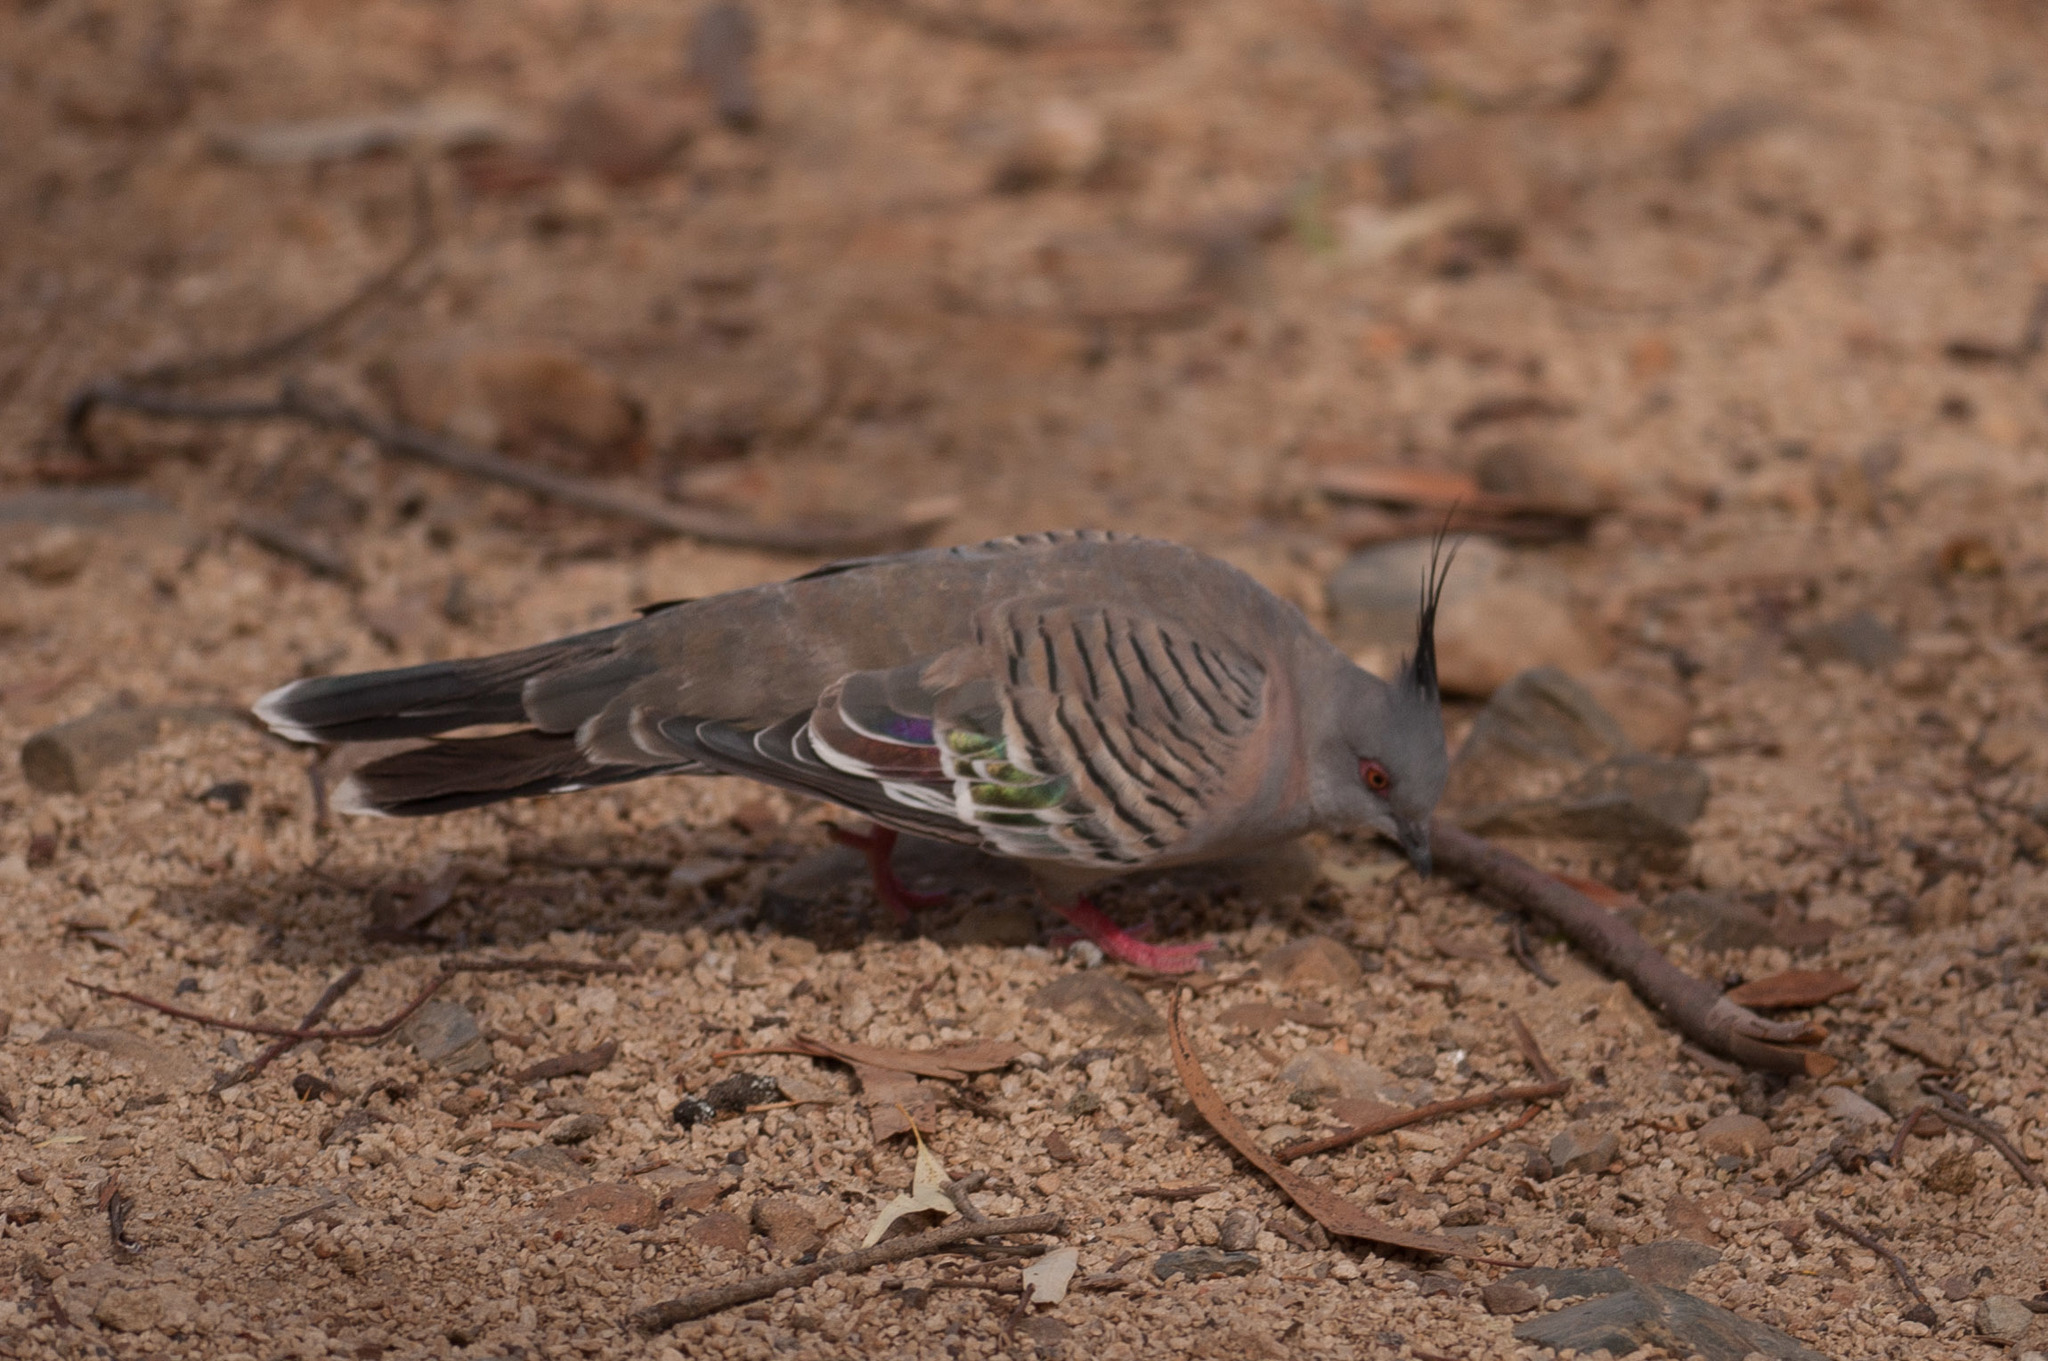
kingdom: Animalia
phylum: Chordata
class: Aves
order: Columbiformes
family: Columbidae
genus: Ocyphaps
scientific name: Ocyphaps lophotes
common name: Crested pigeon
